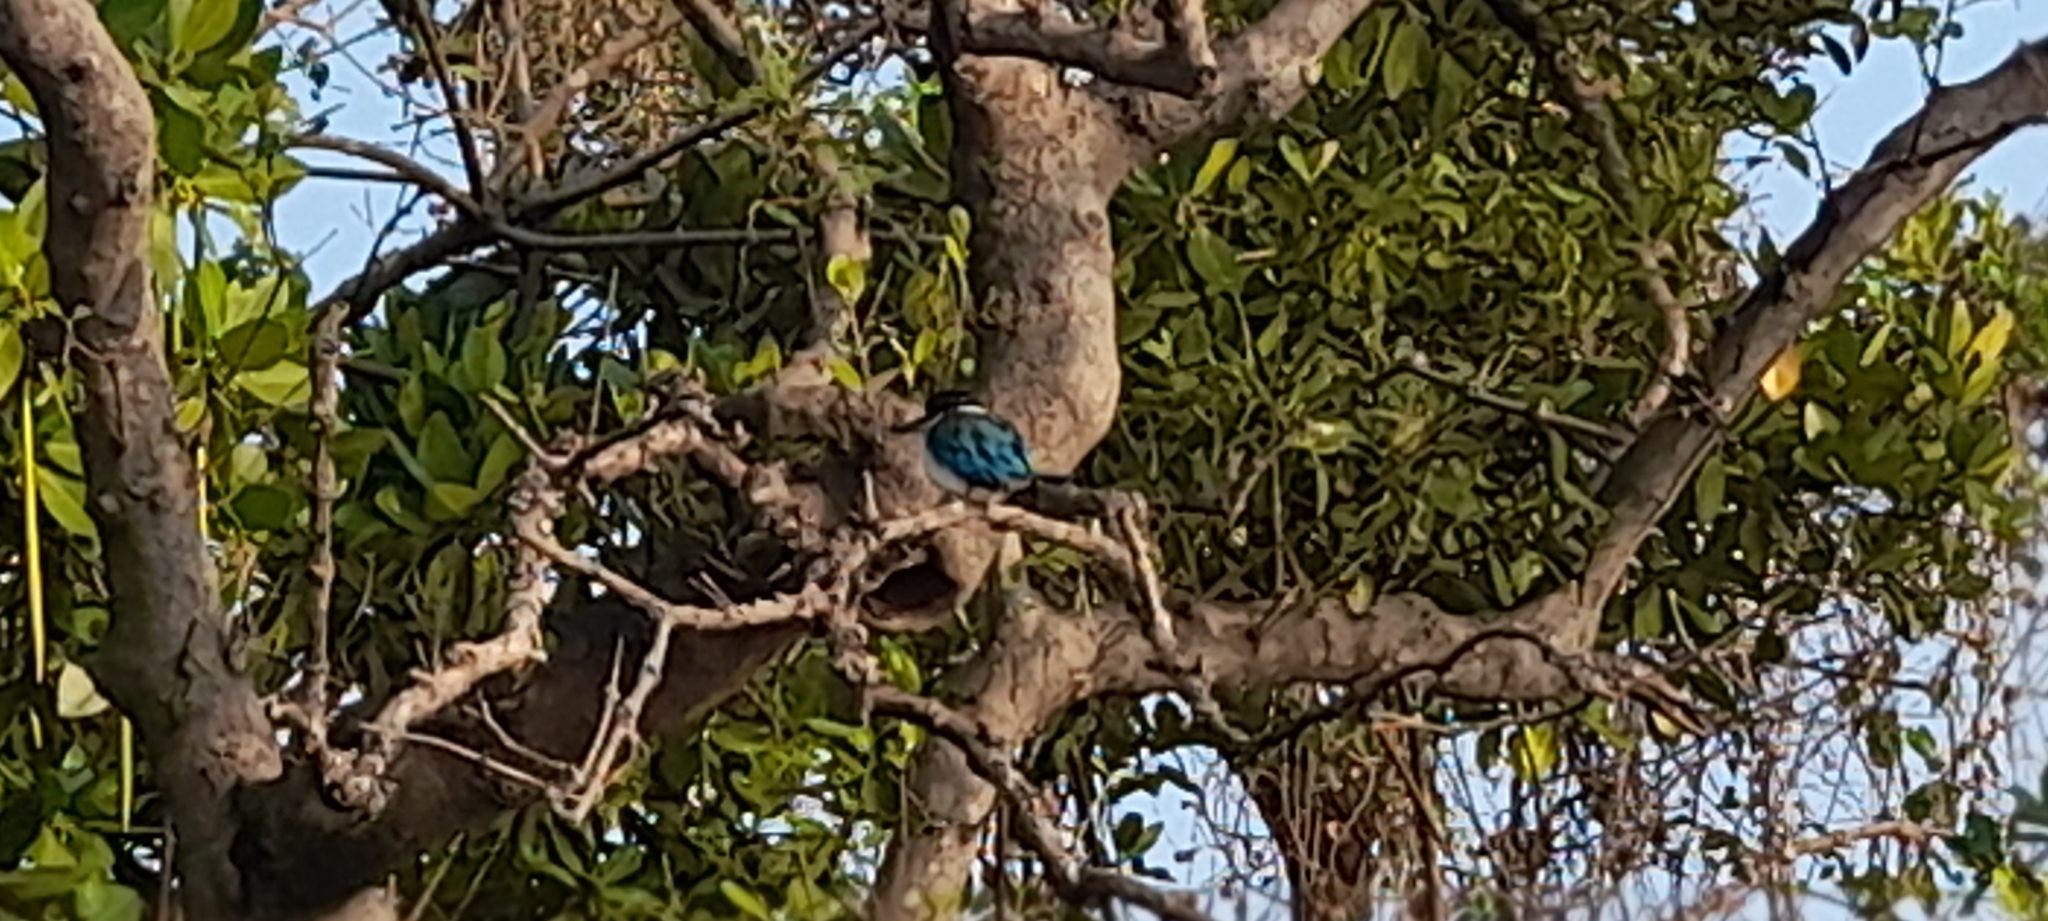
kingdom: Animalia
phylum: Chordata
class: Aves
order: Coraciiformes
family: Alcedinidae
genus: Todiramphus
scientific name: Todiramphus chloris
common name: Collared kingfisher
